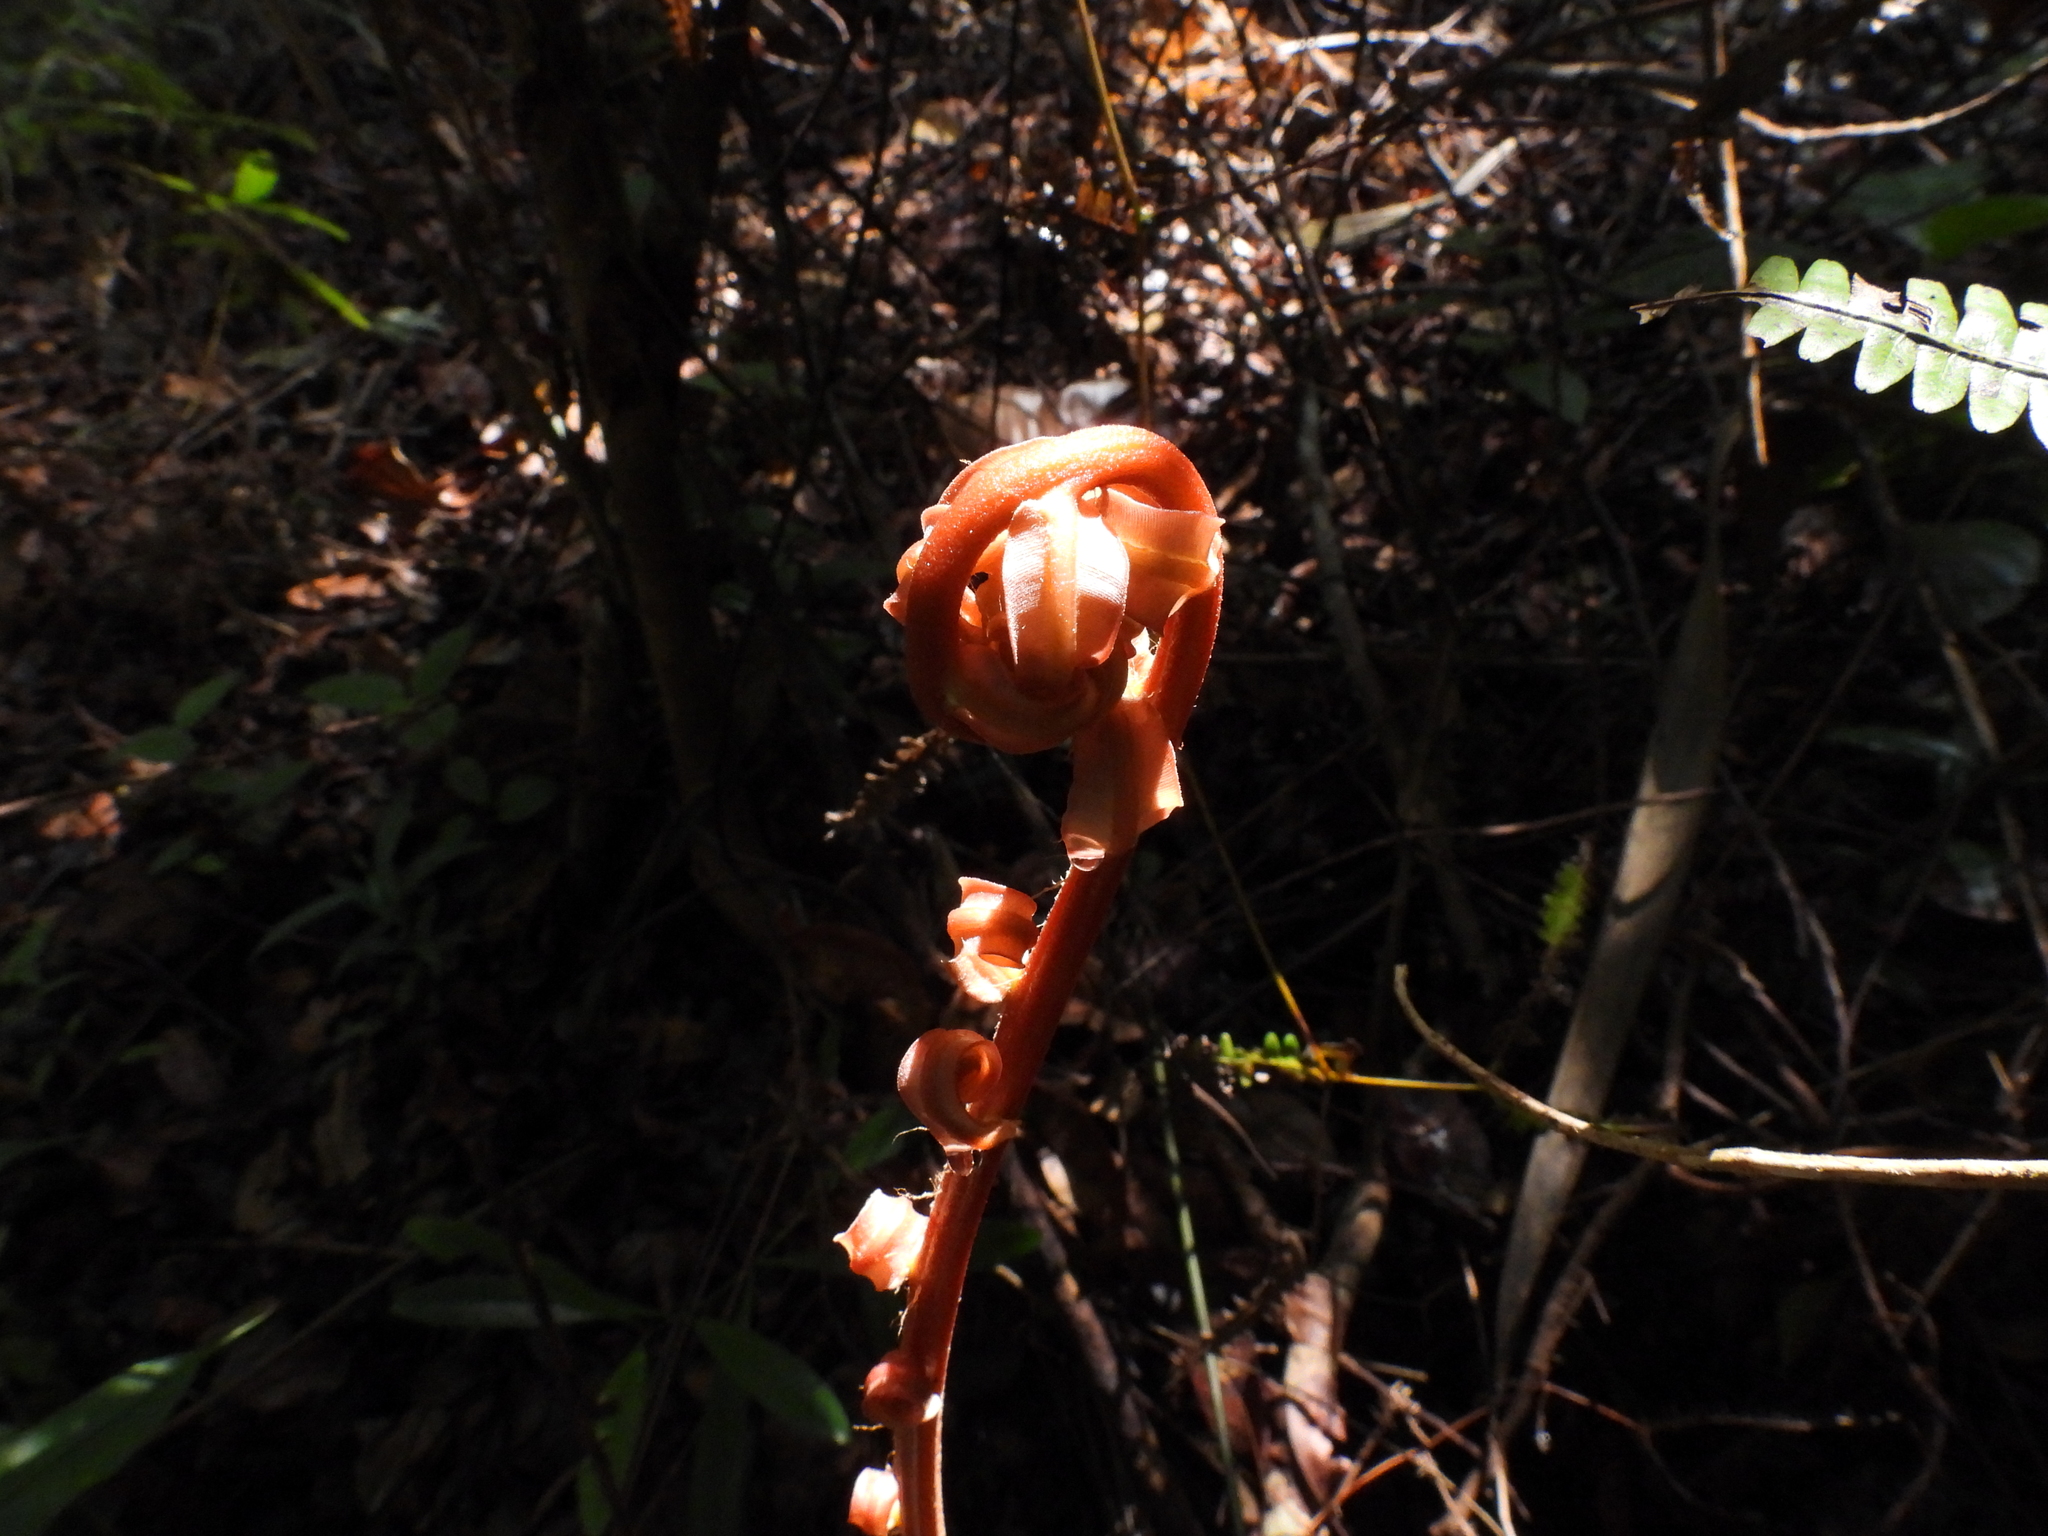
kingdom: Plantae
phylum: Tracheophyta
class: Polypodiopsida
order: Polypodiales
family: Blechnaceae
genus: Blechnopsis
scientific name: Blechnopsis finlaysoniana
